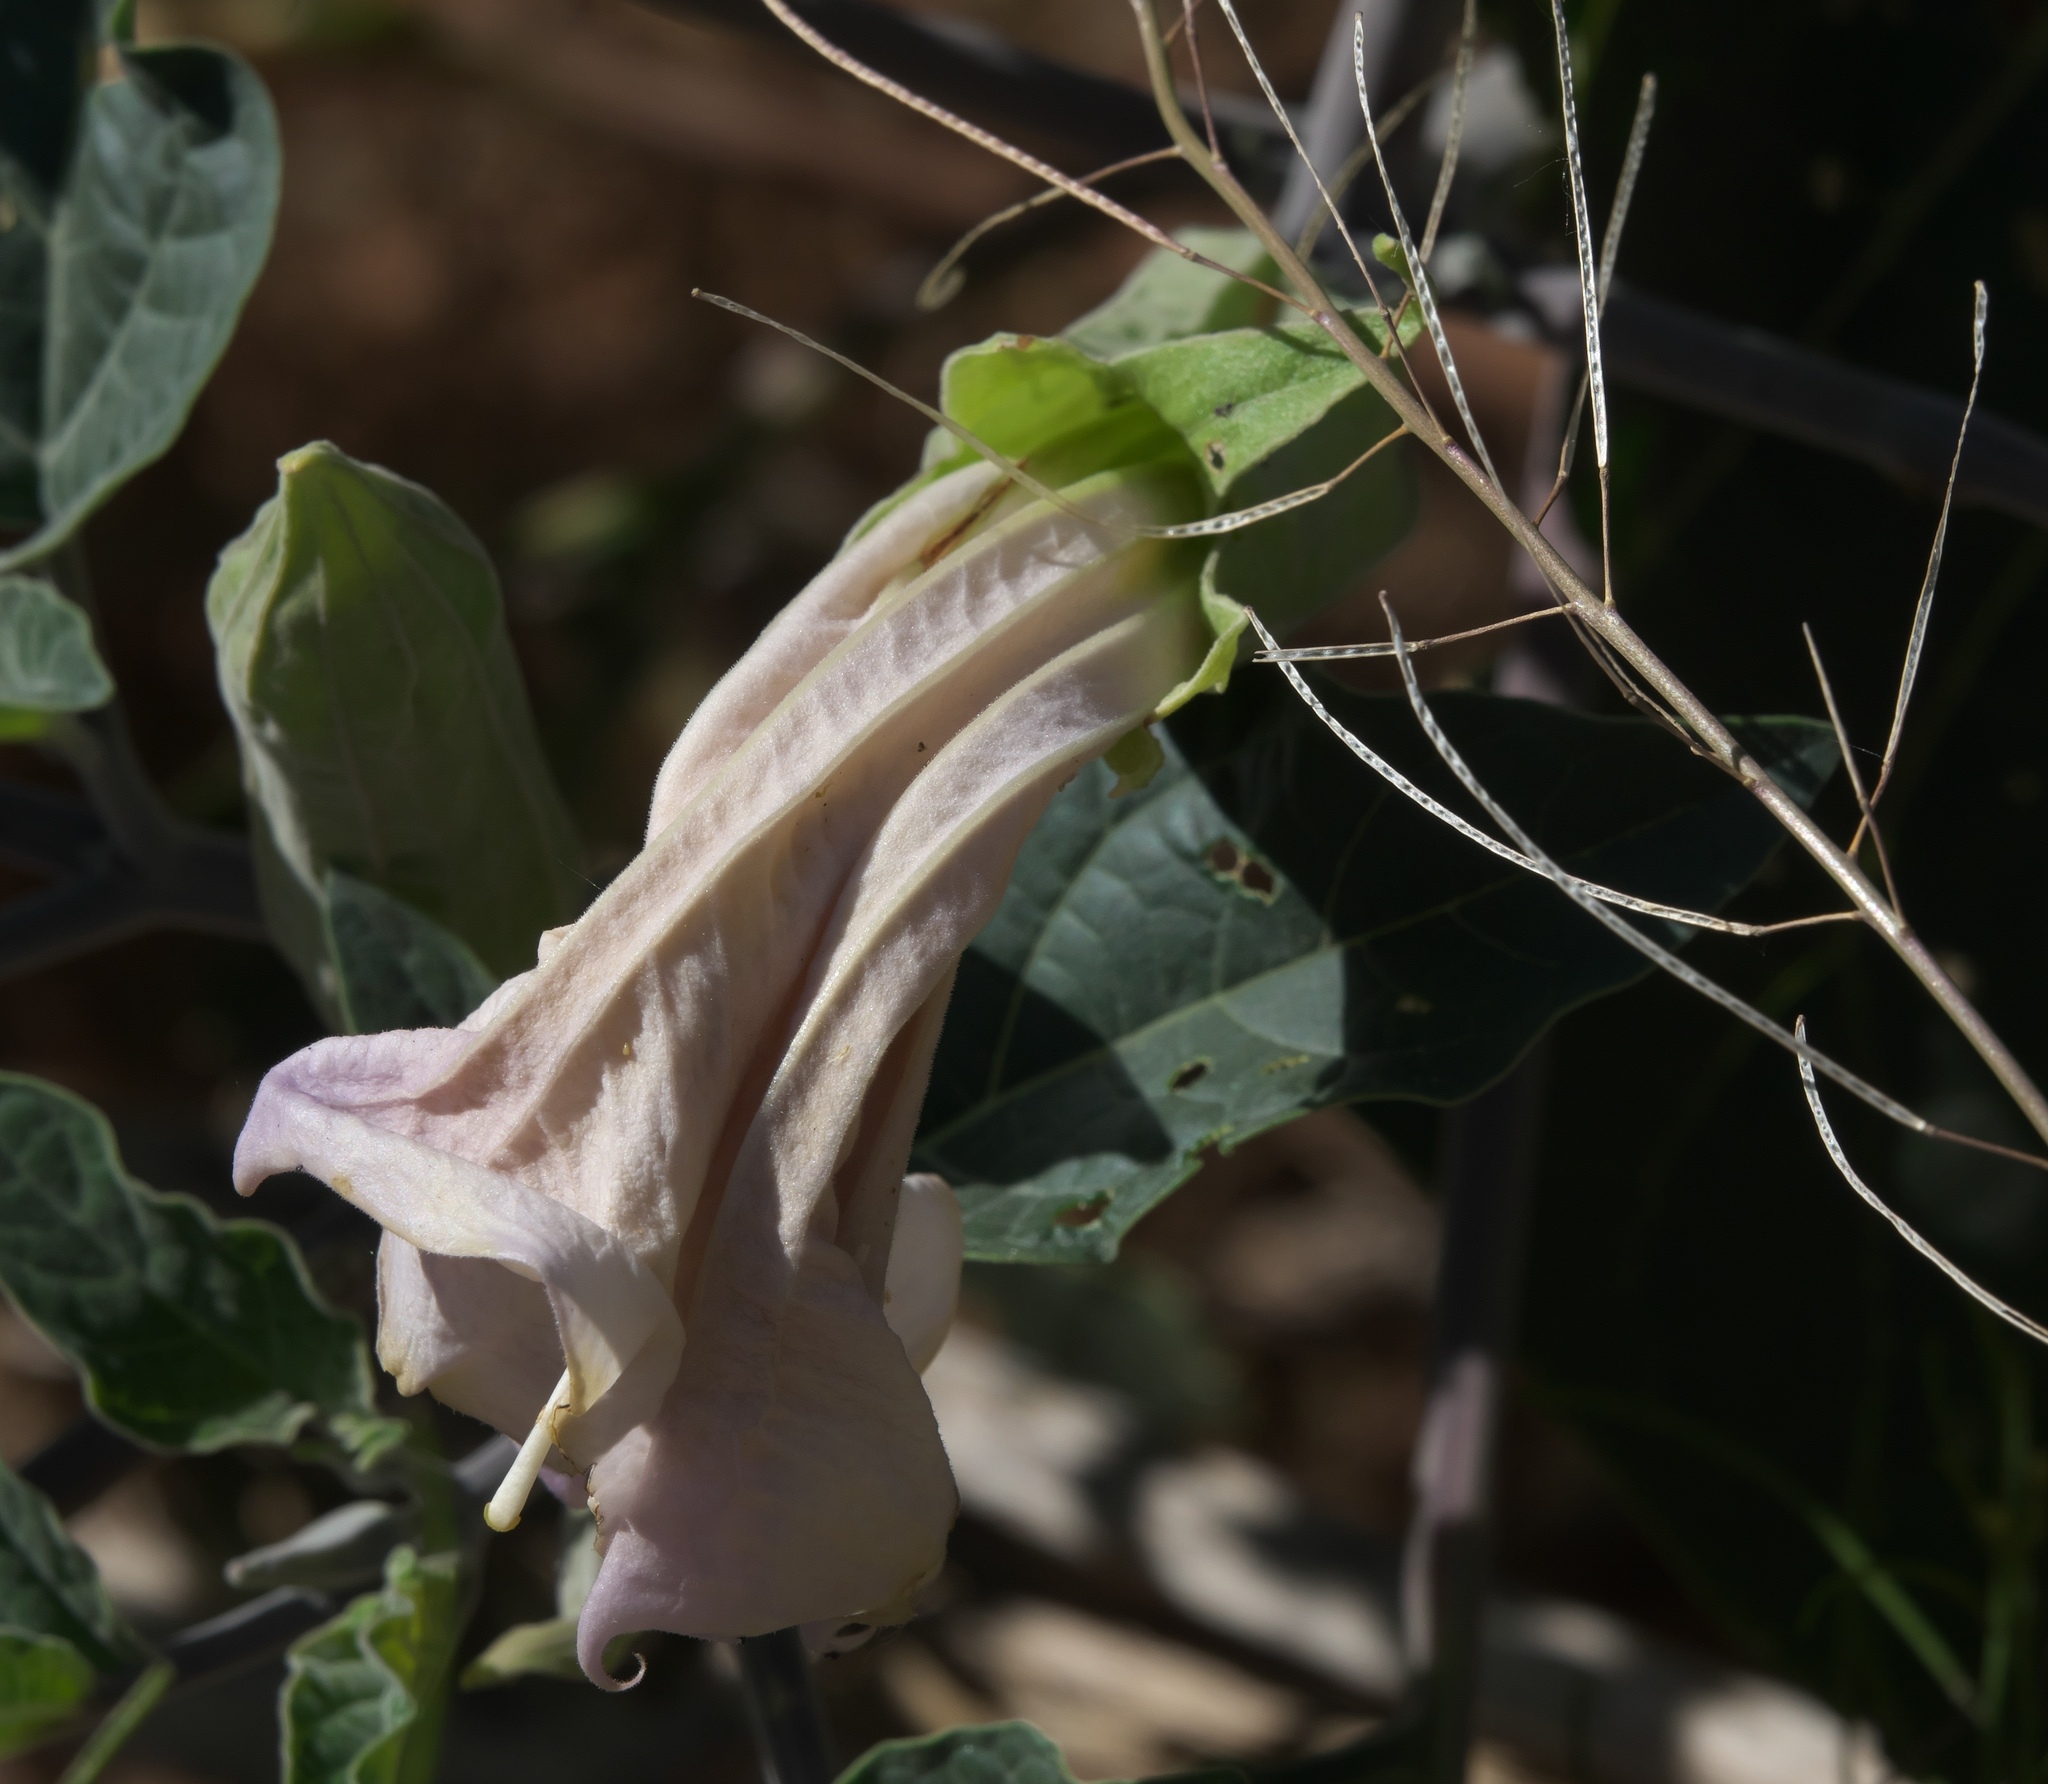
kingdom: Plantae
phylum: Tracheophyta
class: Magnoliopsida
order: Solanales
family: Solanaceae
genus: Datura
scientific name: Datura wrightii
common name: Sacred thorn-apple
